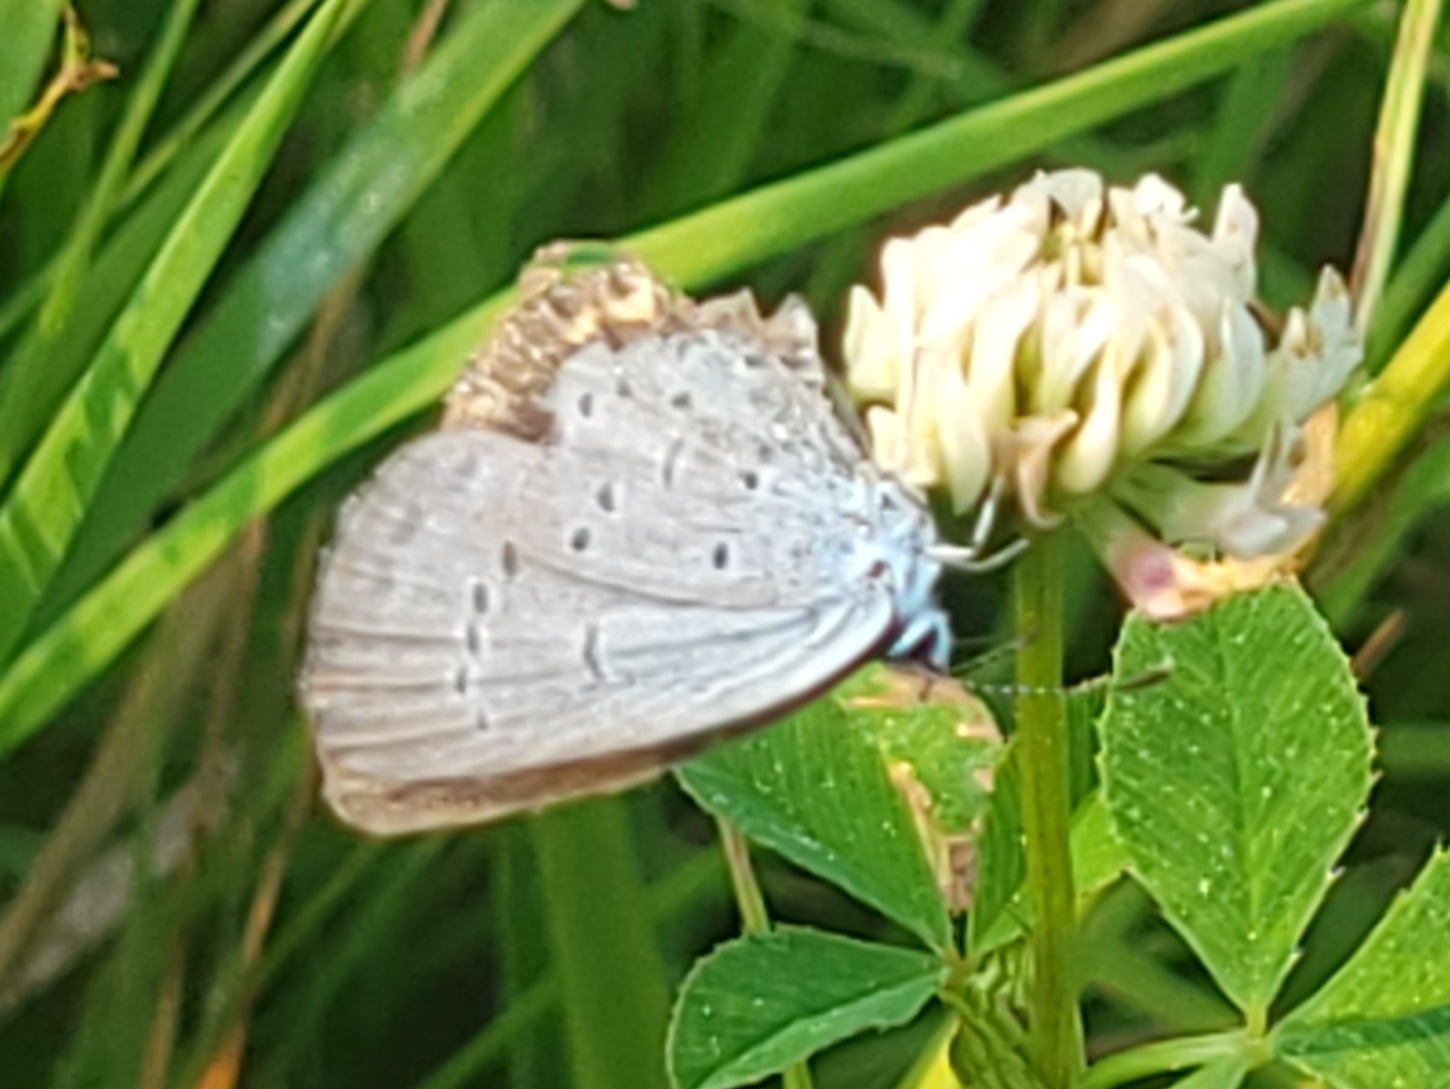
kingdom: Animalia
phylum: Arthropoda
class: Insecta
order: Lepidoptera
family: Lycaenidae
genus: Elkalyce
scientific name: Elkalyce comyntas
